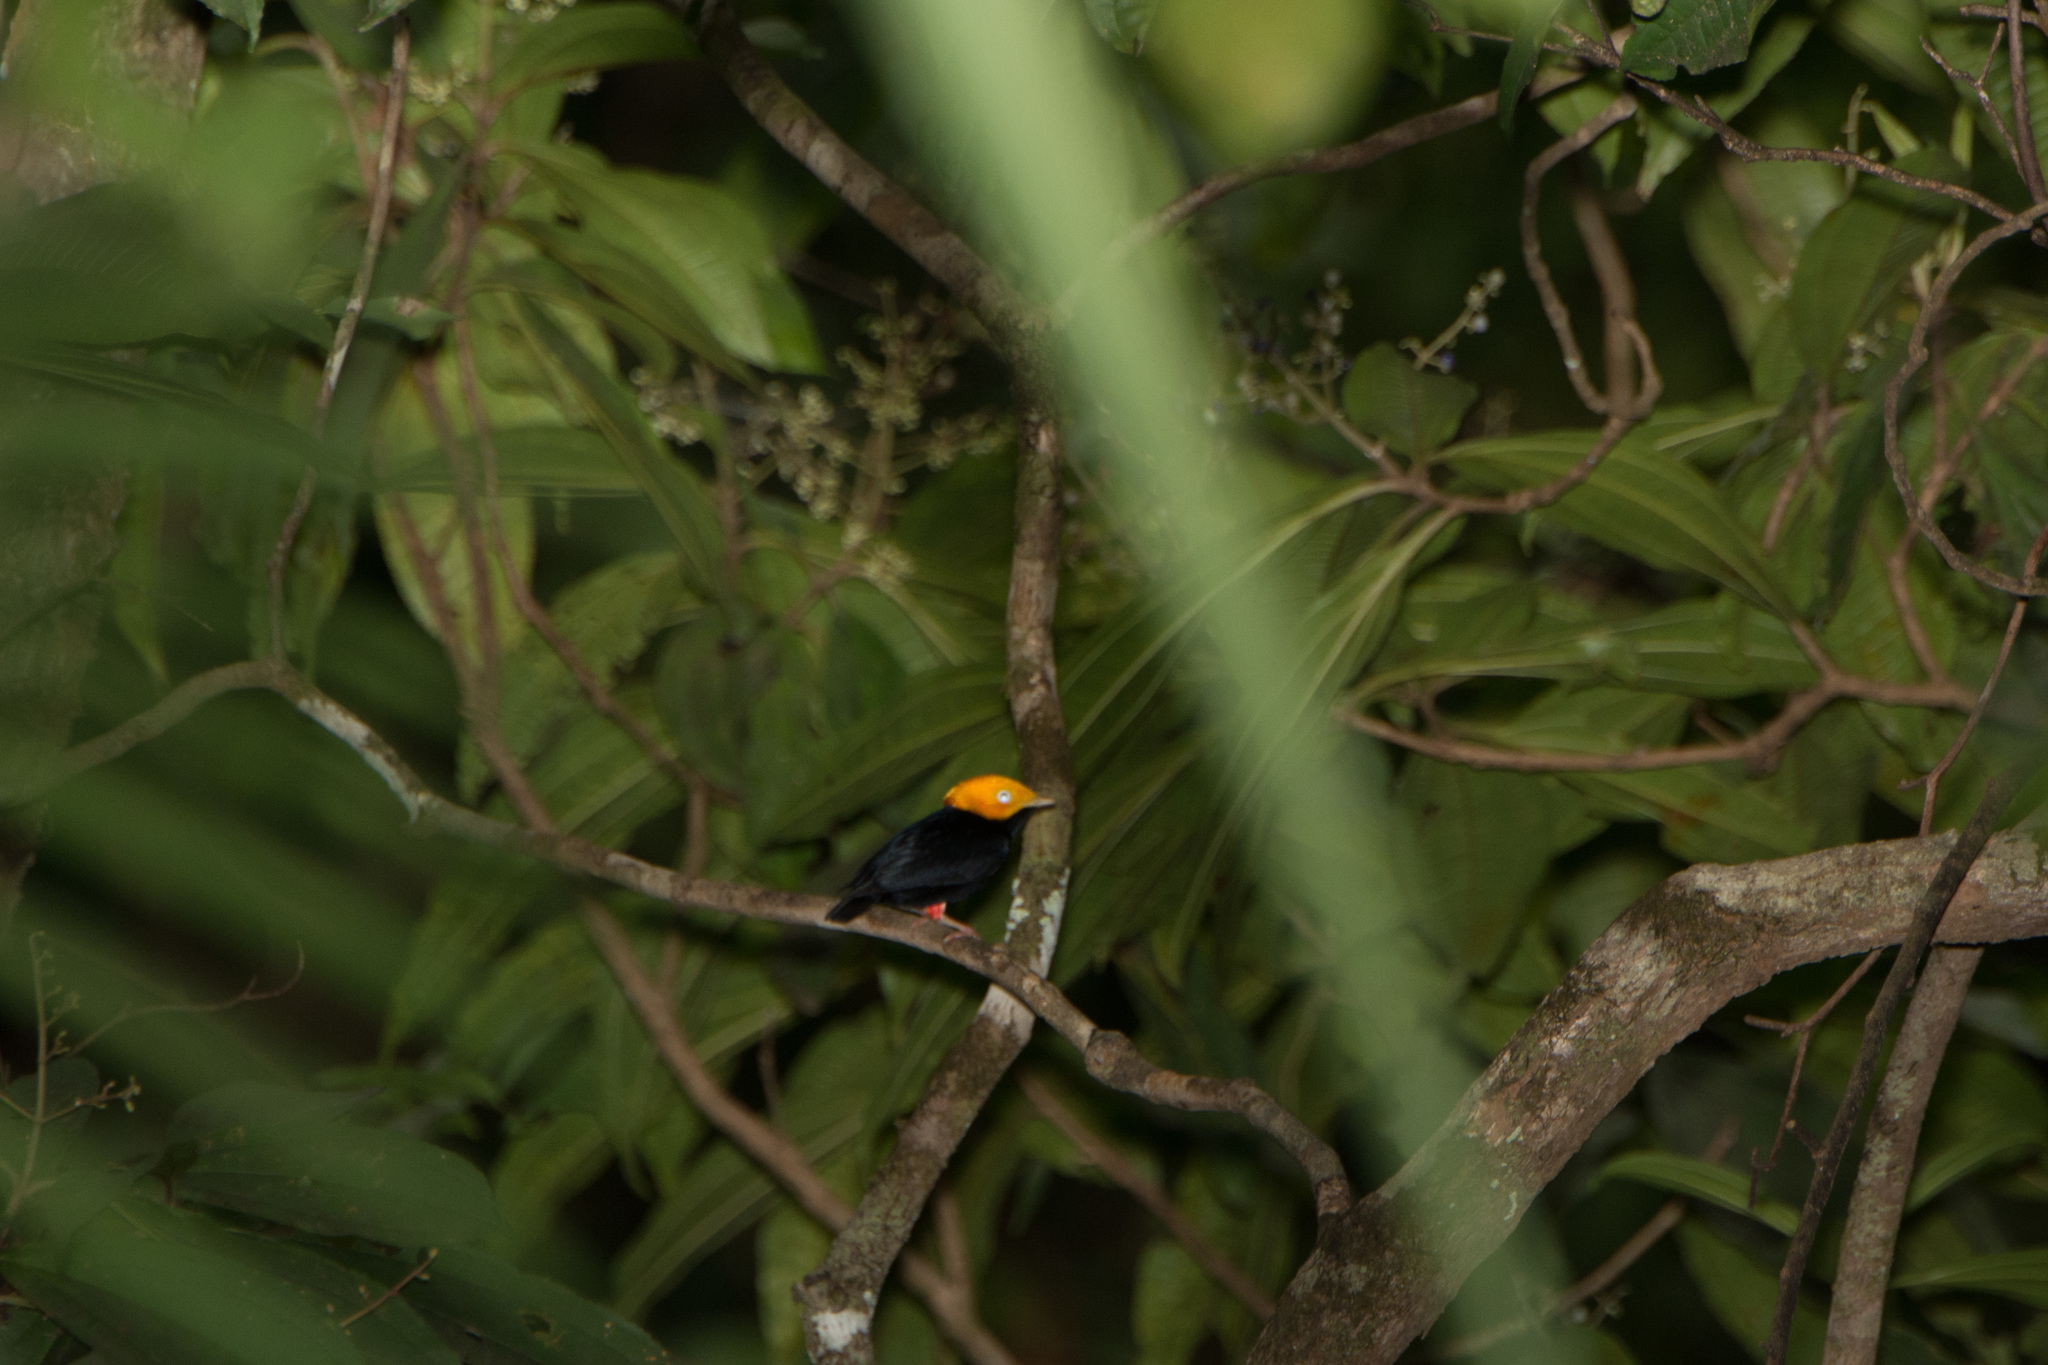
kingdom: Animalia
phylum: Chordata
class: Aves
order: Passeriformes
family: Pipridae
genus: Pipra
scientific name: Pipra erythrocephala
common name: Golden-headed manakin
